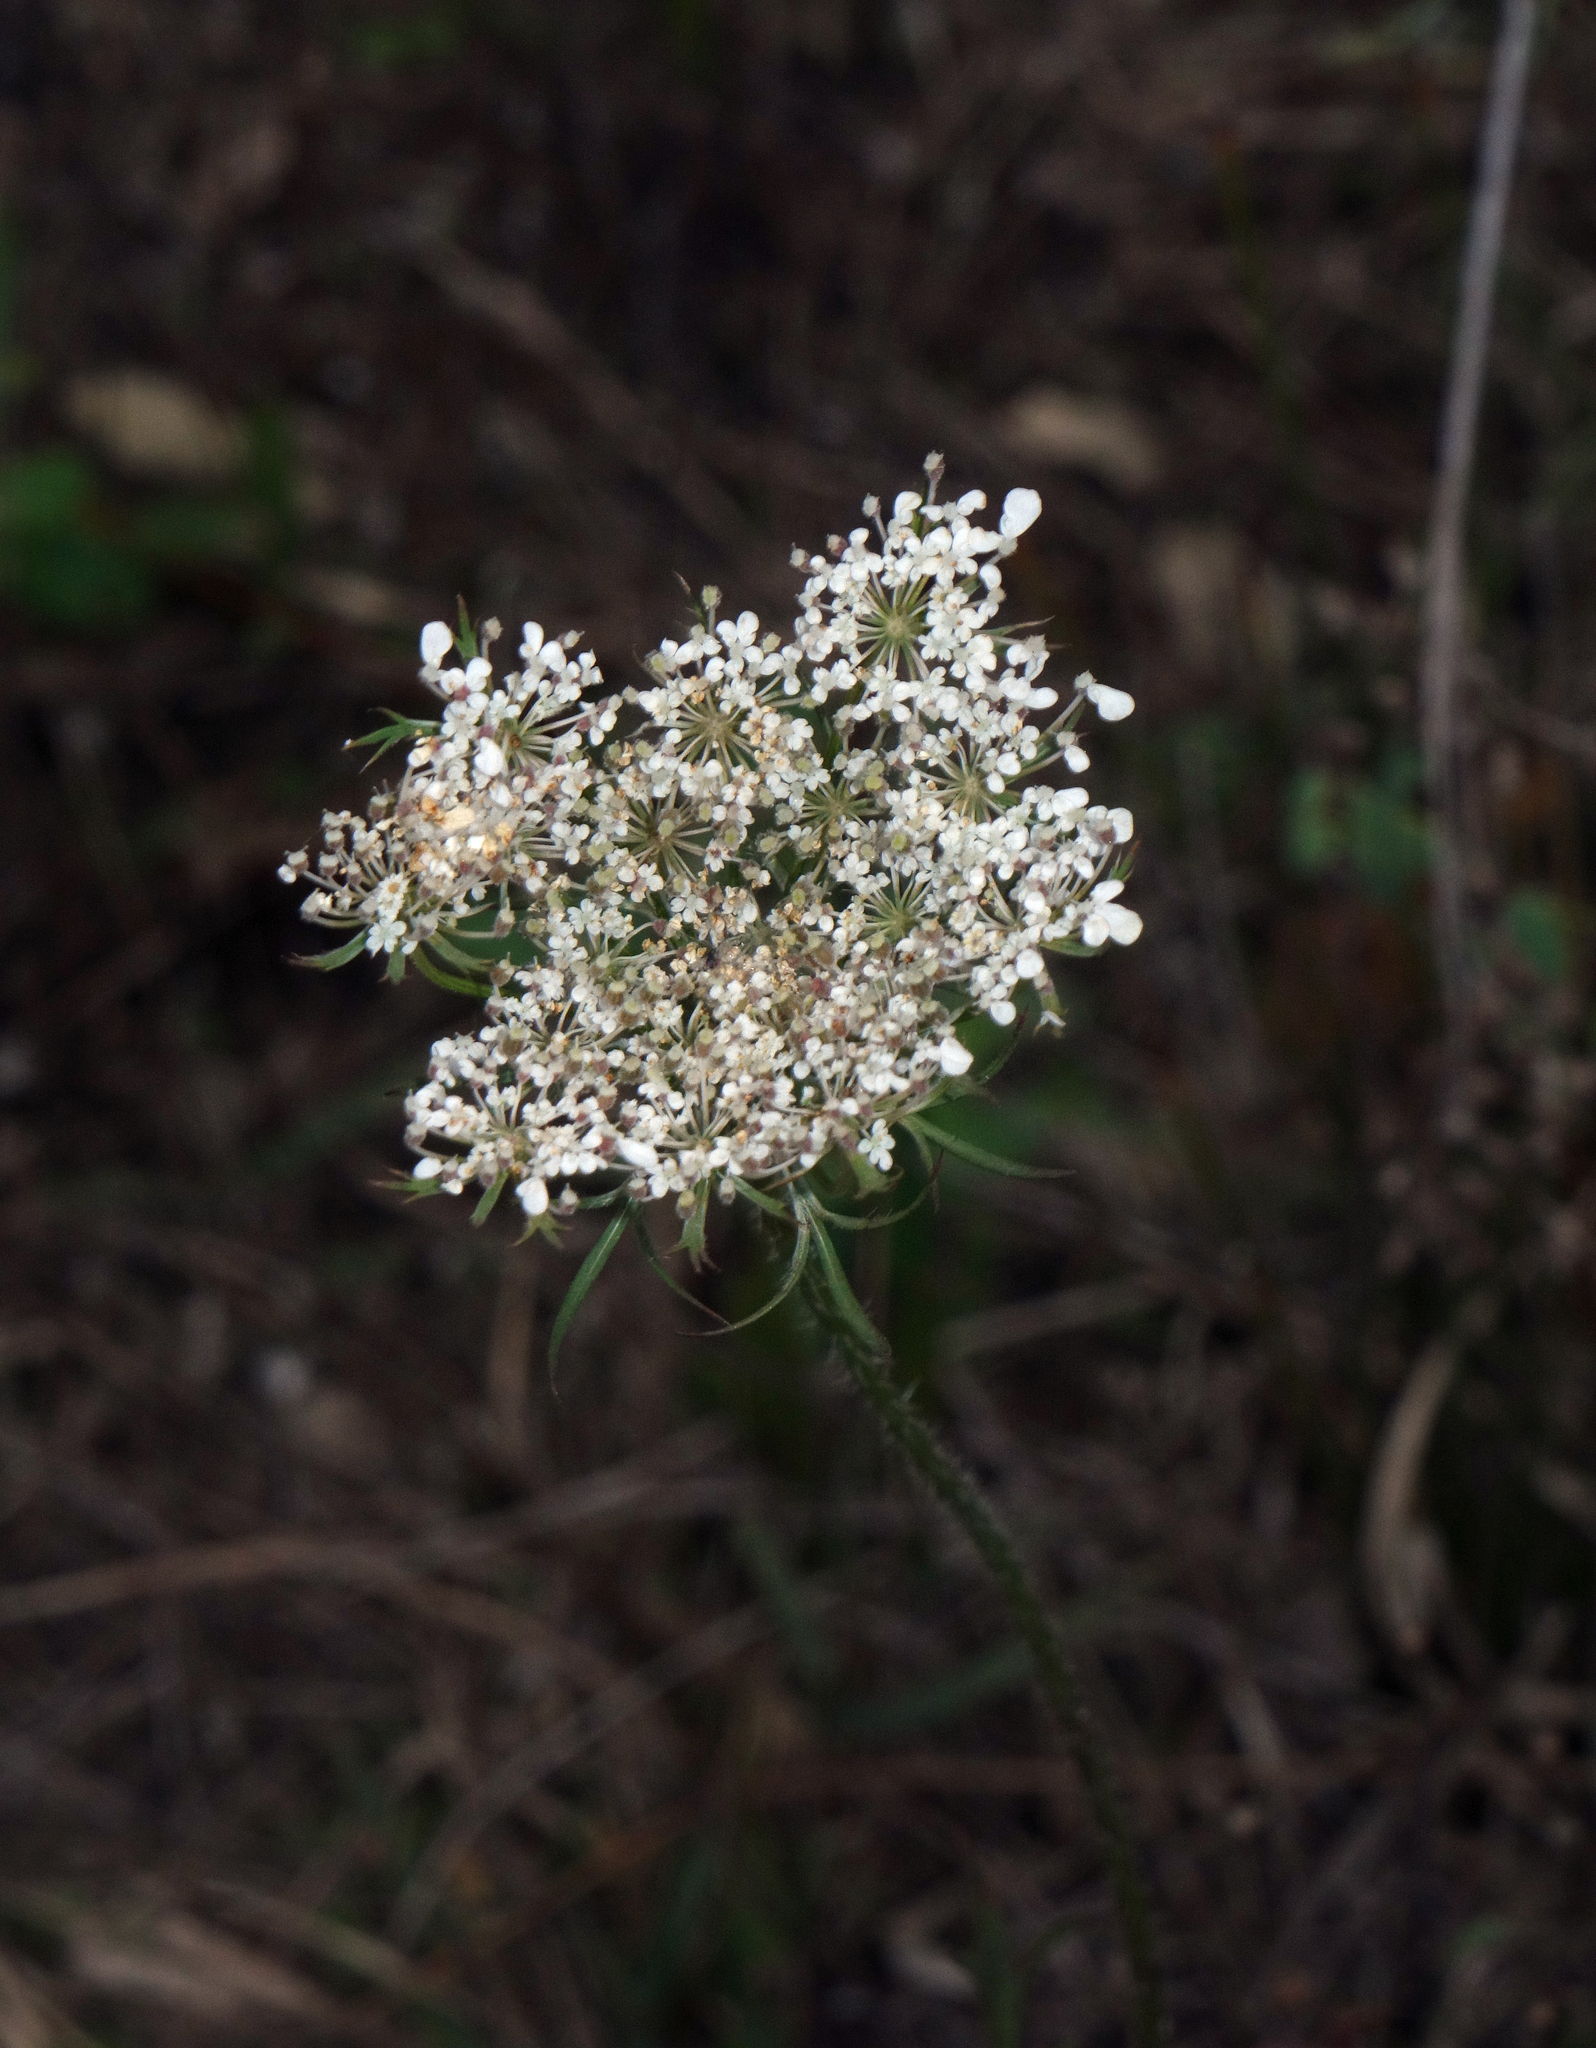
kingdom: Plantae
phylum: Tracheophyta
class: Magnoliopsida
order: Apiales
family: Apiaceae
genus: Daucus
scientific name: Daucus carota
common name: Wild carrot
